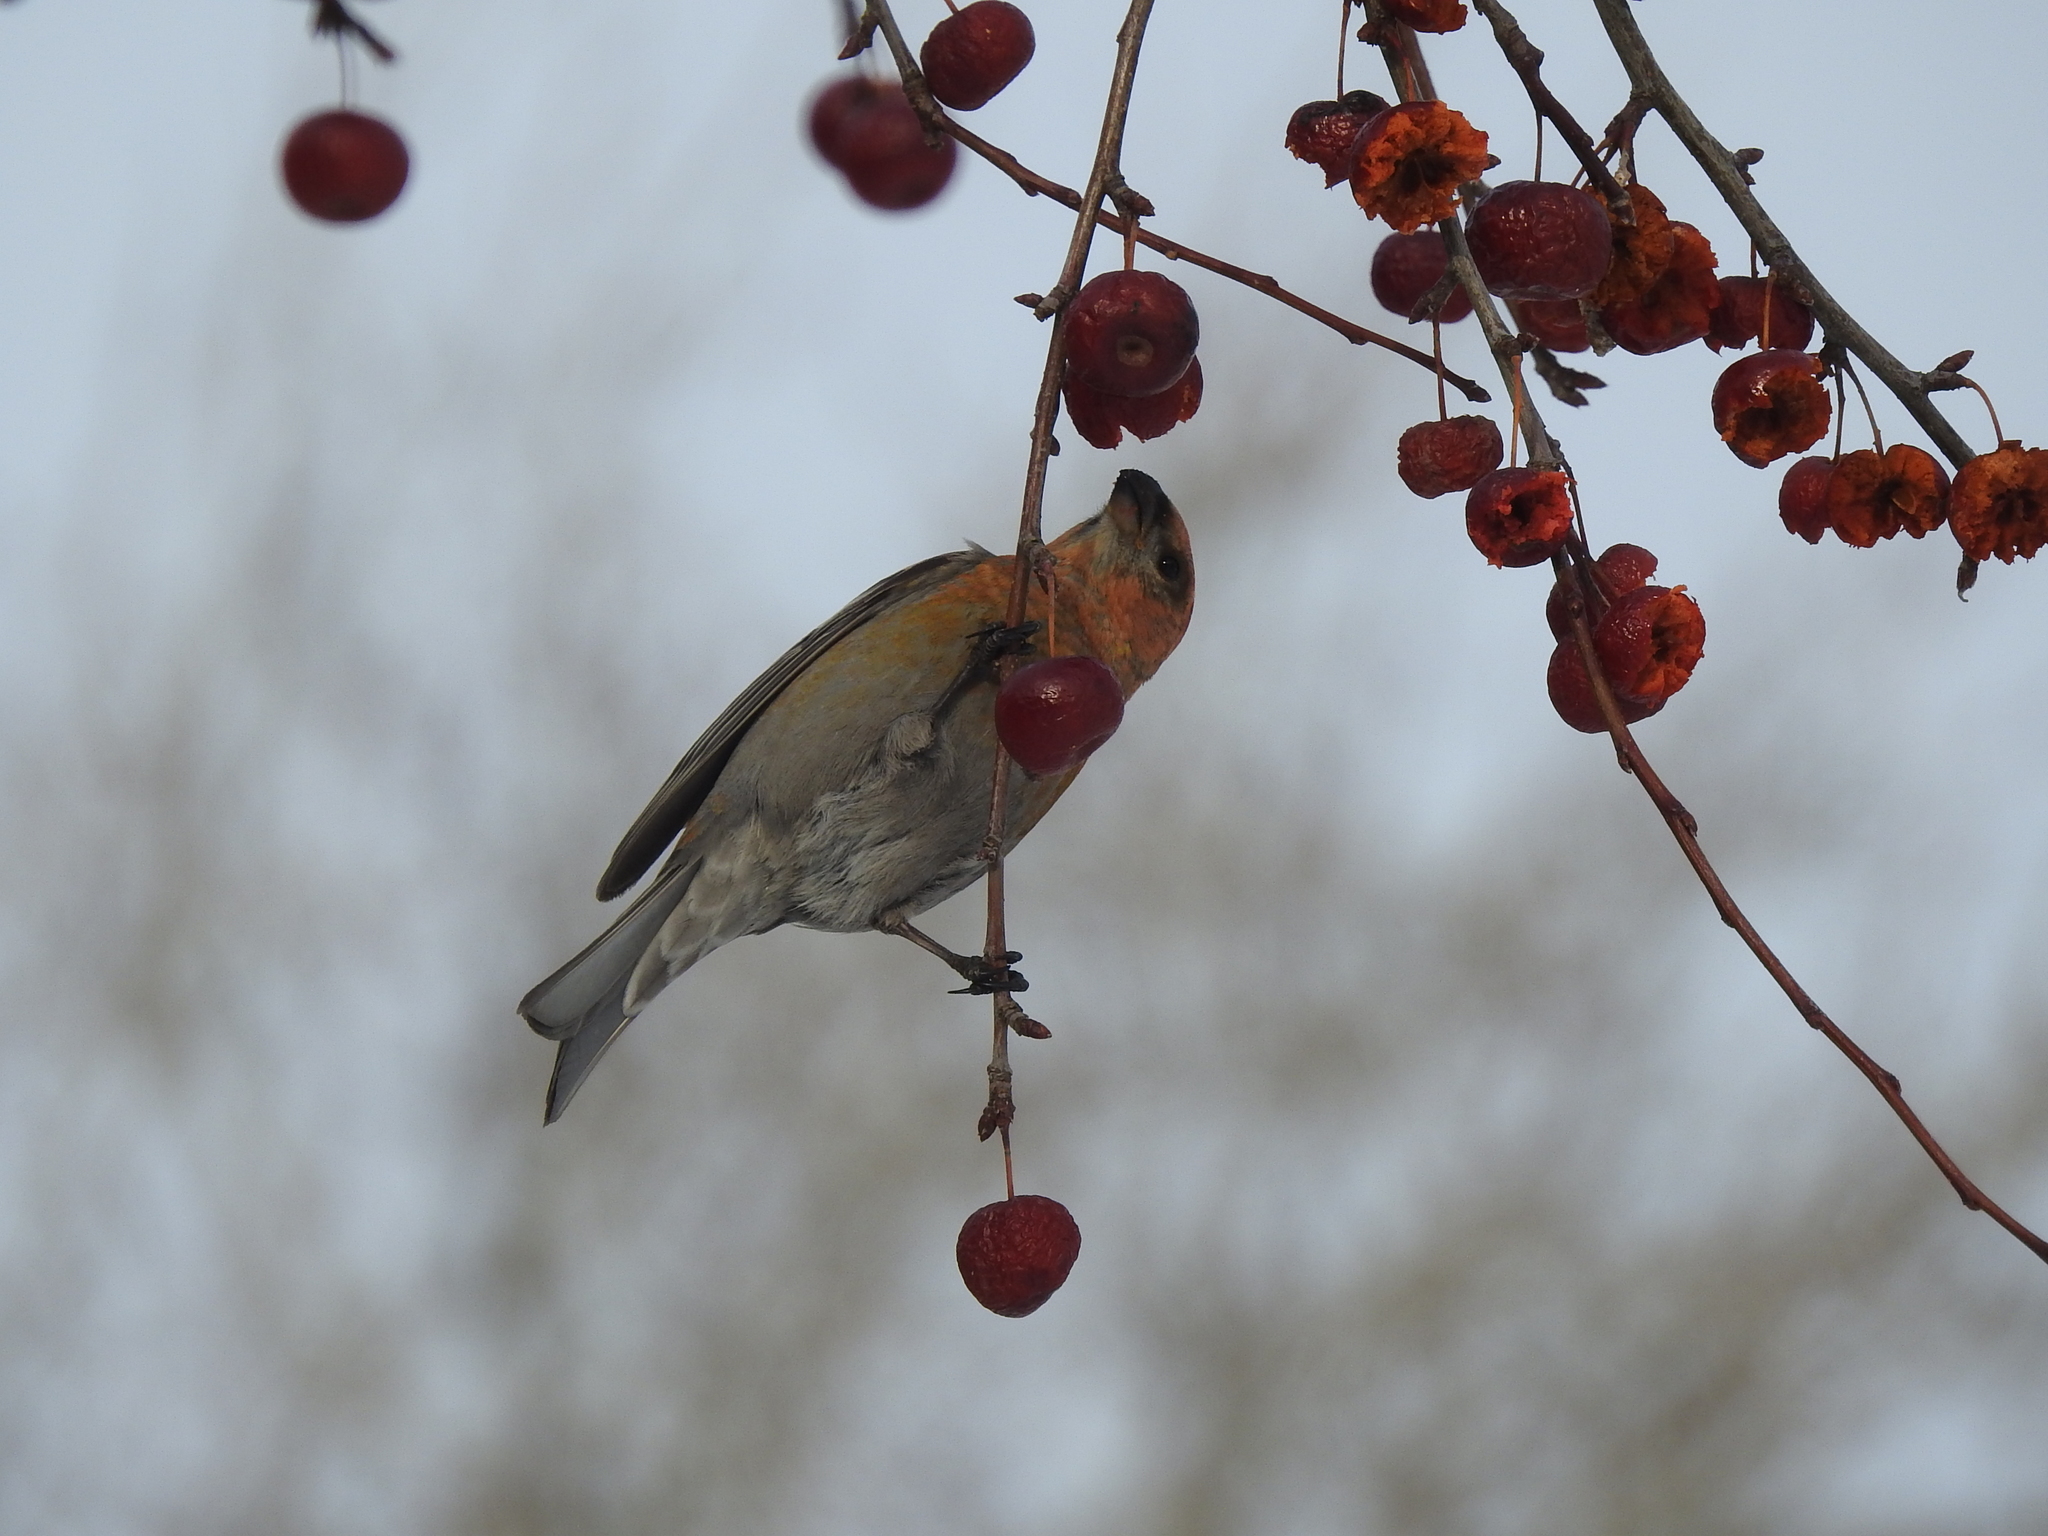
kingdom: Animalia
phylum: Chordata
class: Aves
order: Passeriformes
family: Fringillidae
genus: Pinicola
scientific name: Pinicola enucleator
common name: Pine grosbeak
